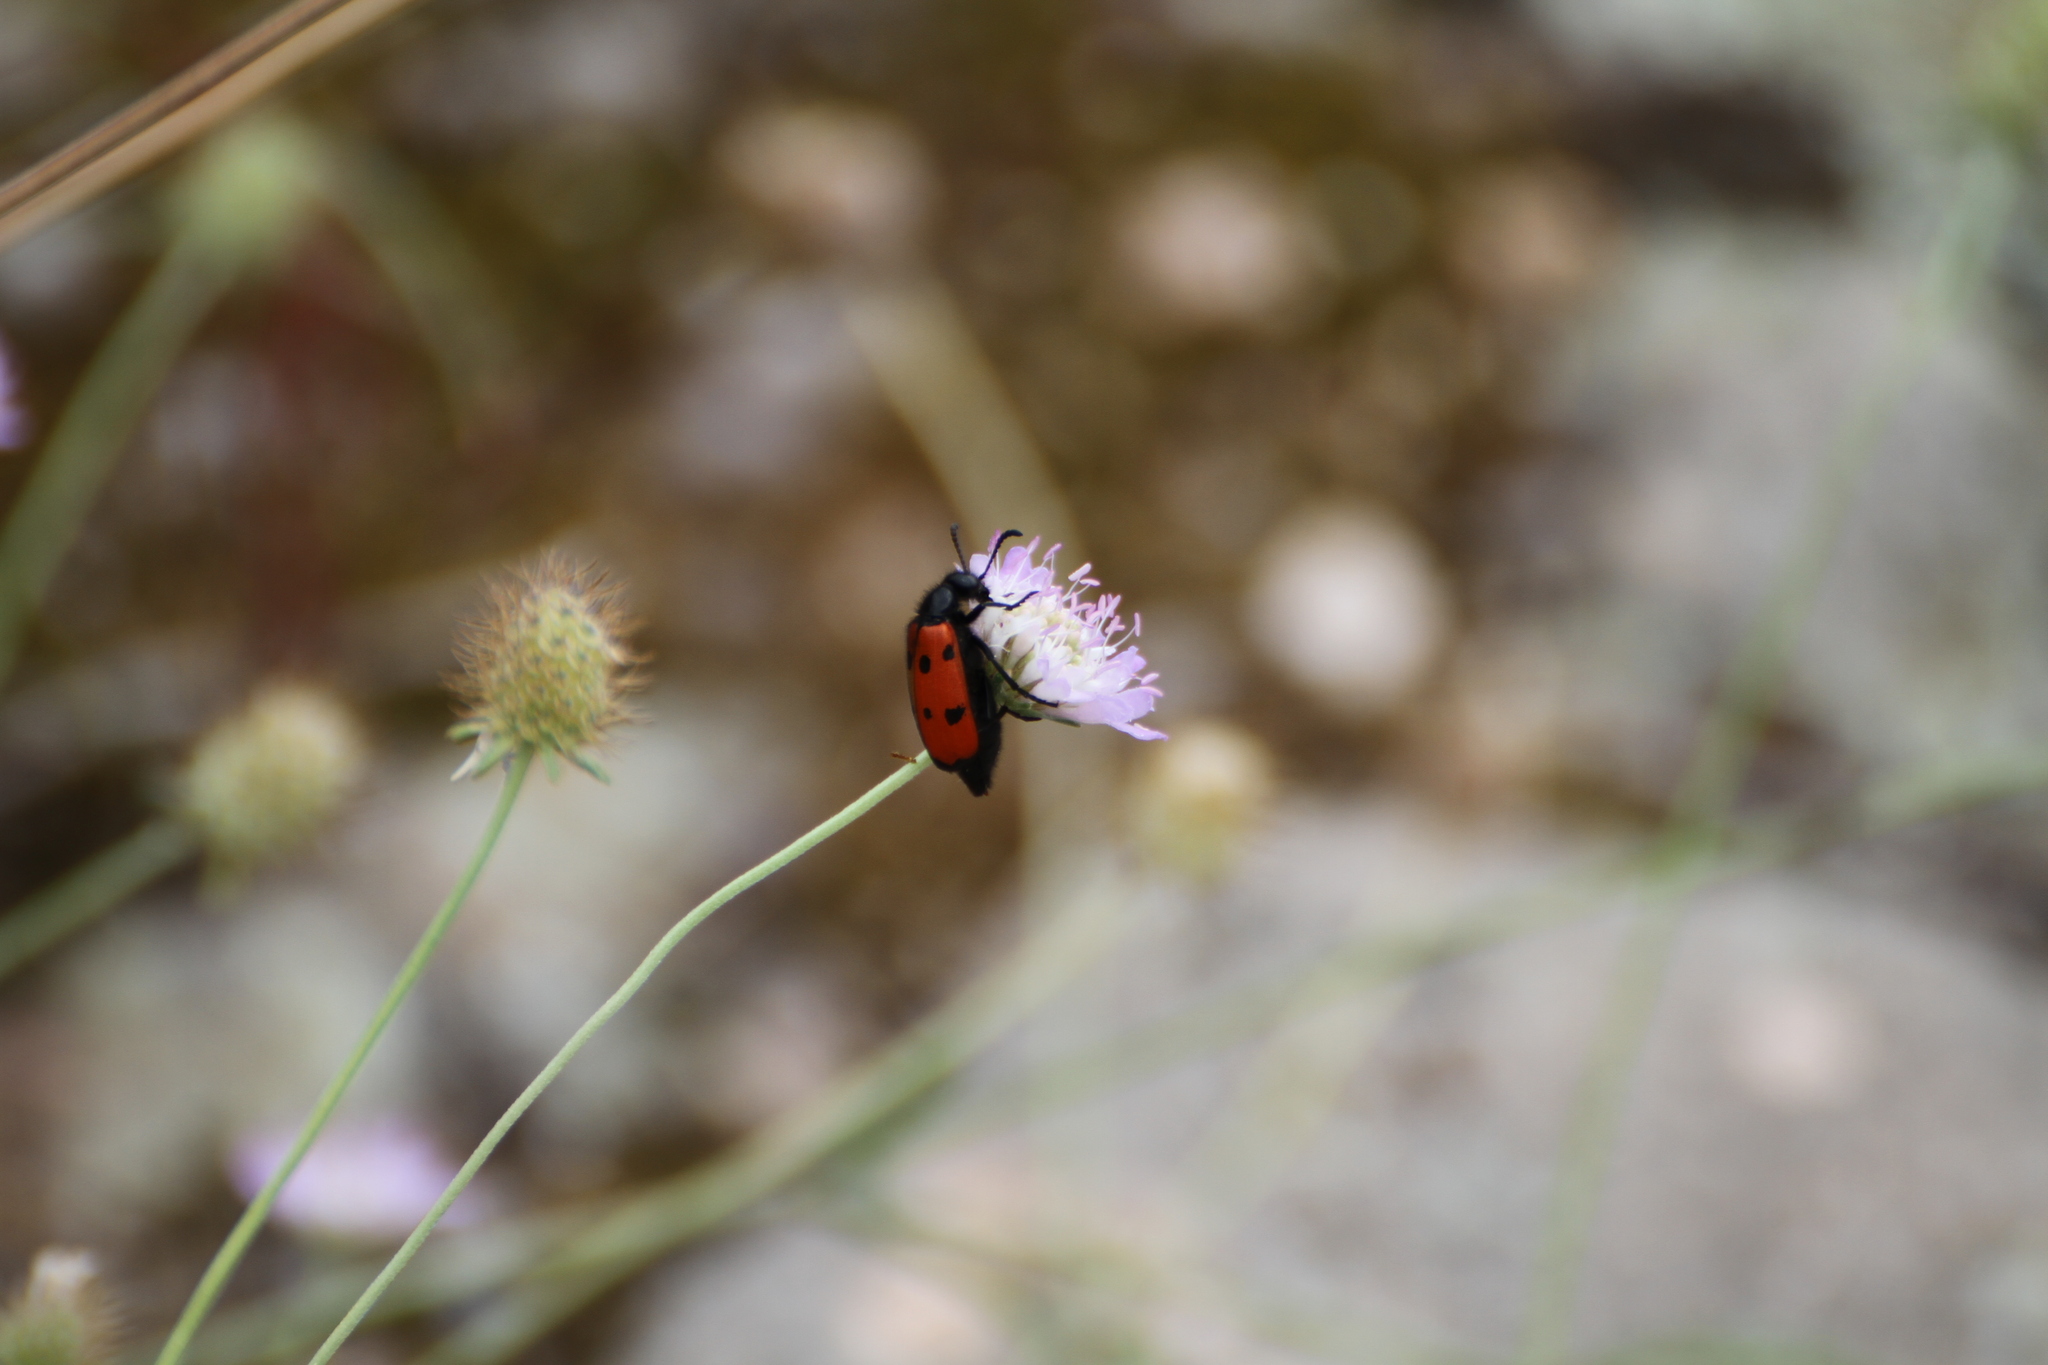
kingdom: Animalia
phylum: Arthropoda
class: Insecta
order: Coleoptera
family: Meloidae
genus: Mylabris
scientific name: Mylabris quadripunctata
